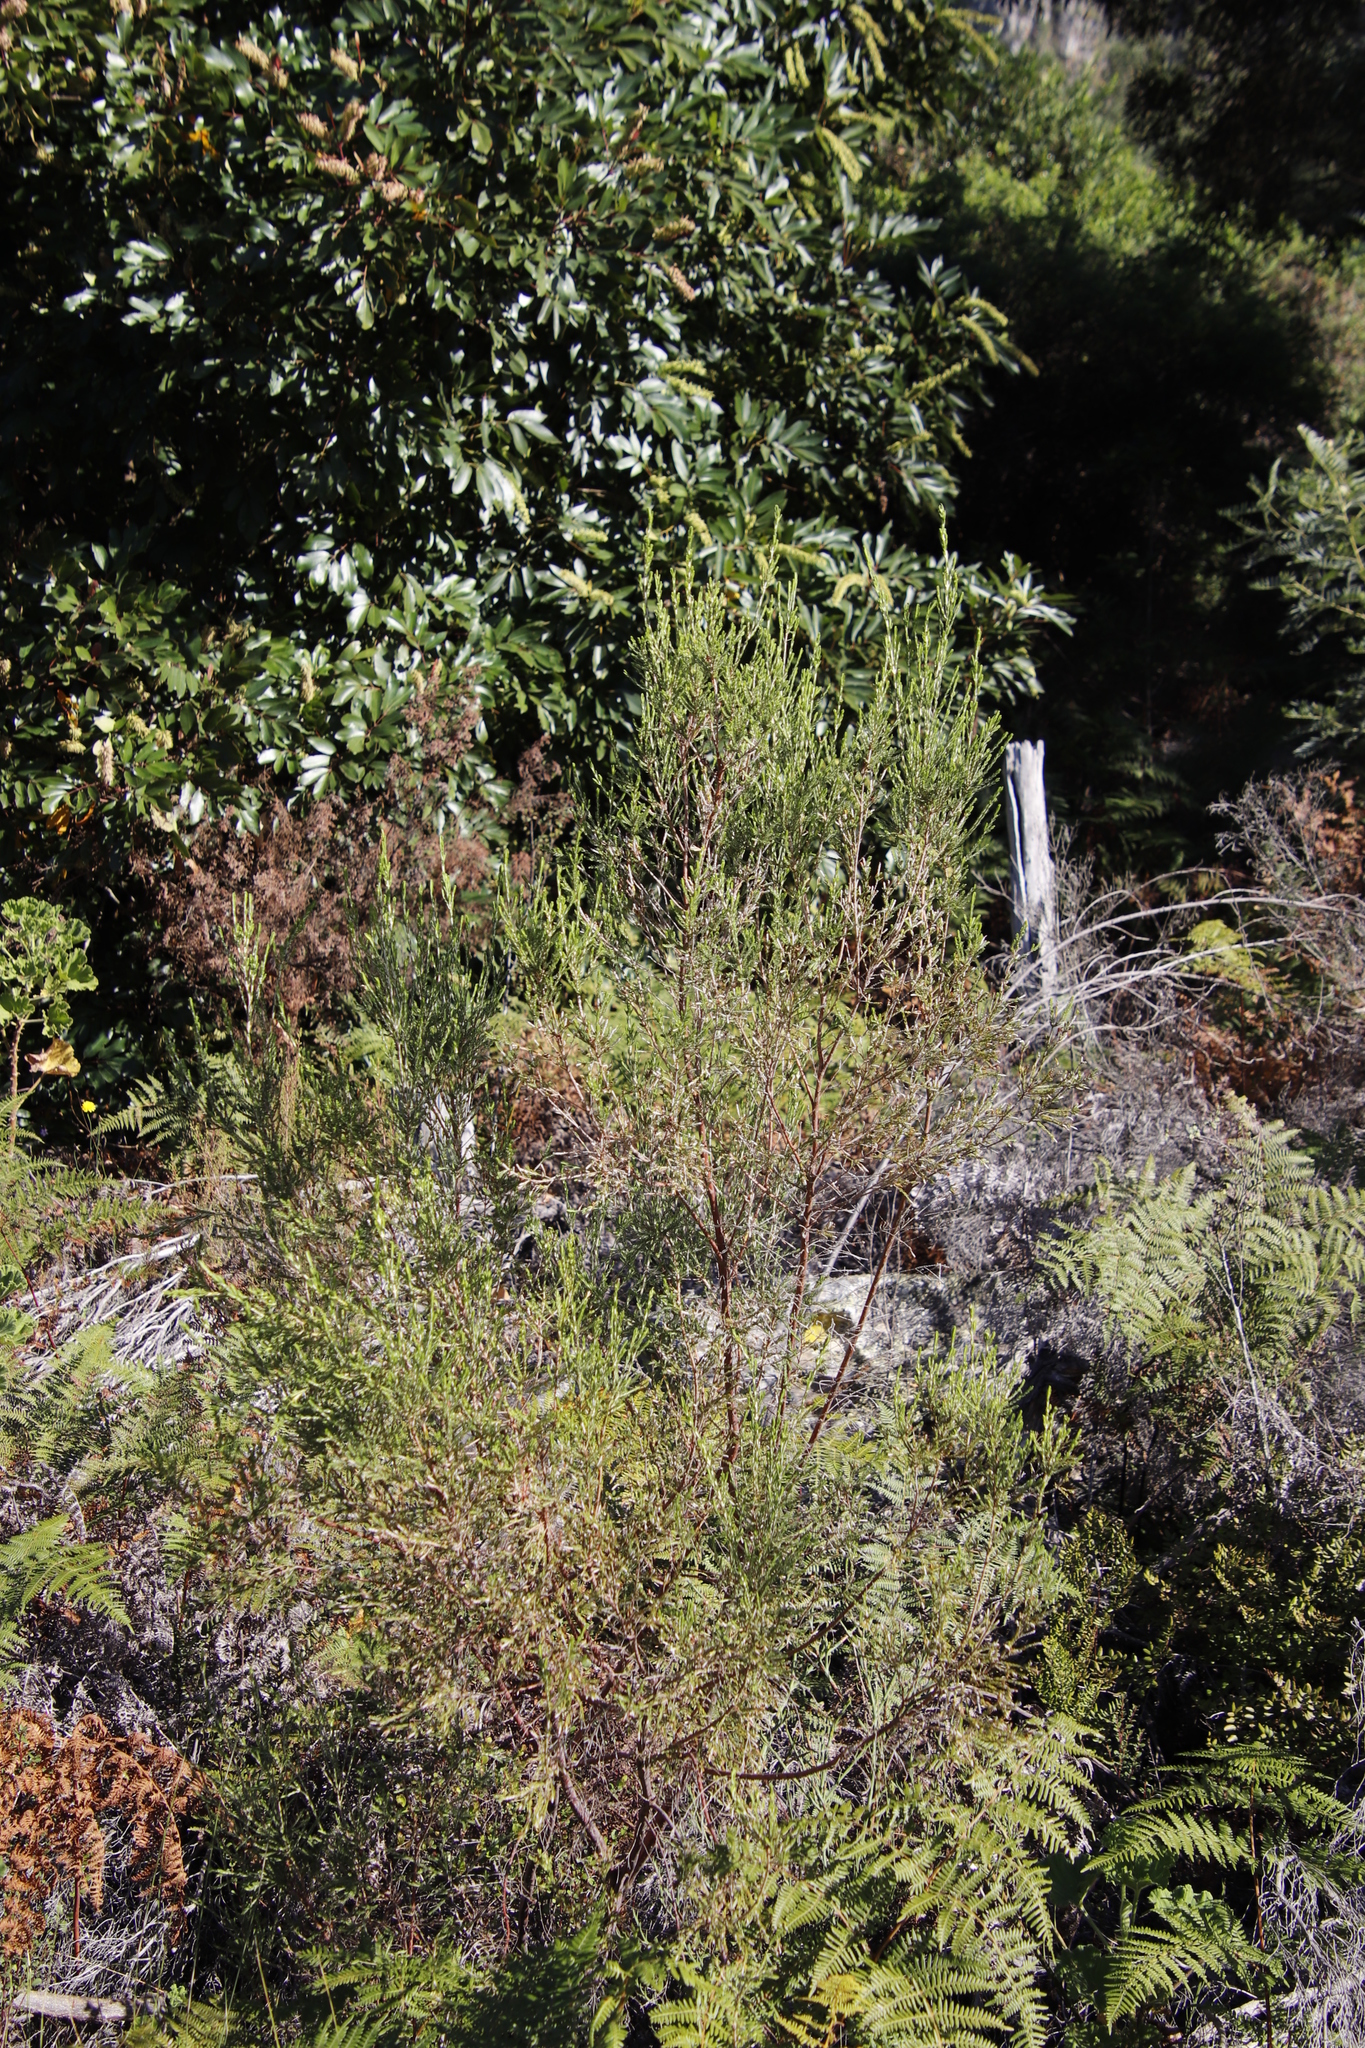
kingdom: Plantae
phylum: Tracheophyta
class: Magnoliopsida
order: Malvales
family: Thymelaeaceae
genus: Passerina
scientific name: Passerina corymbosa
